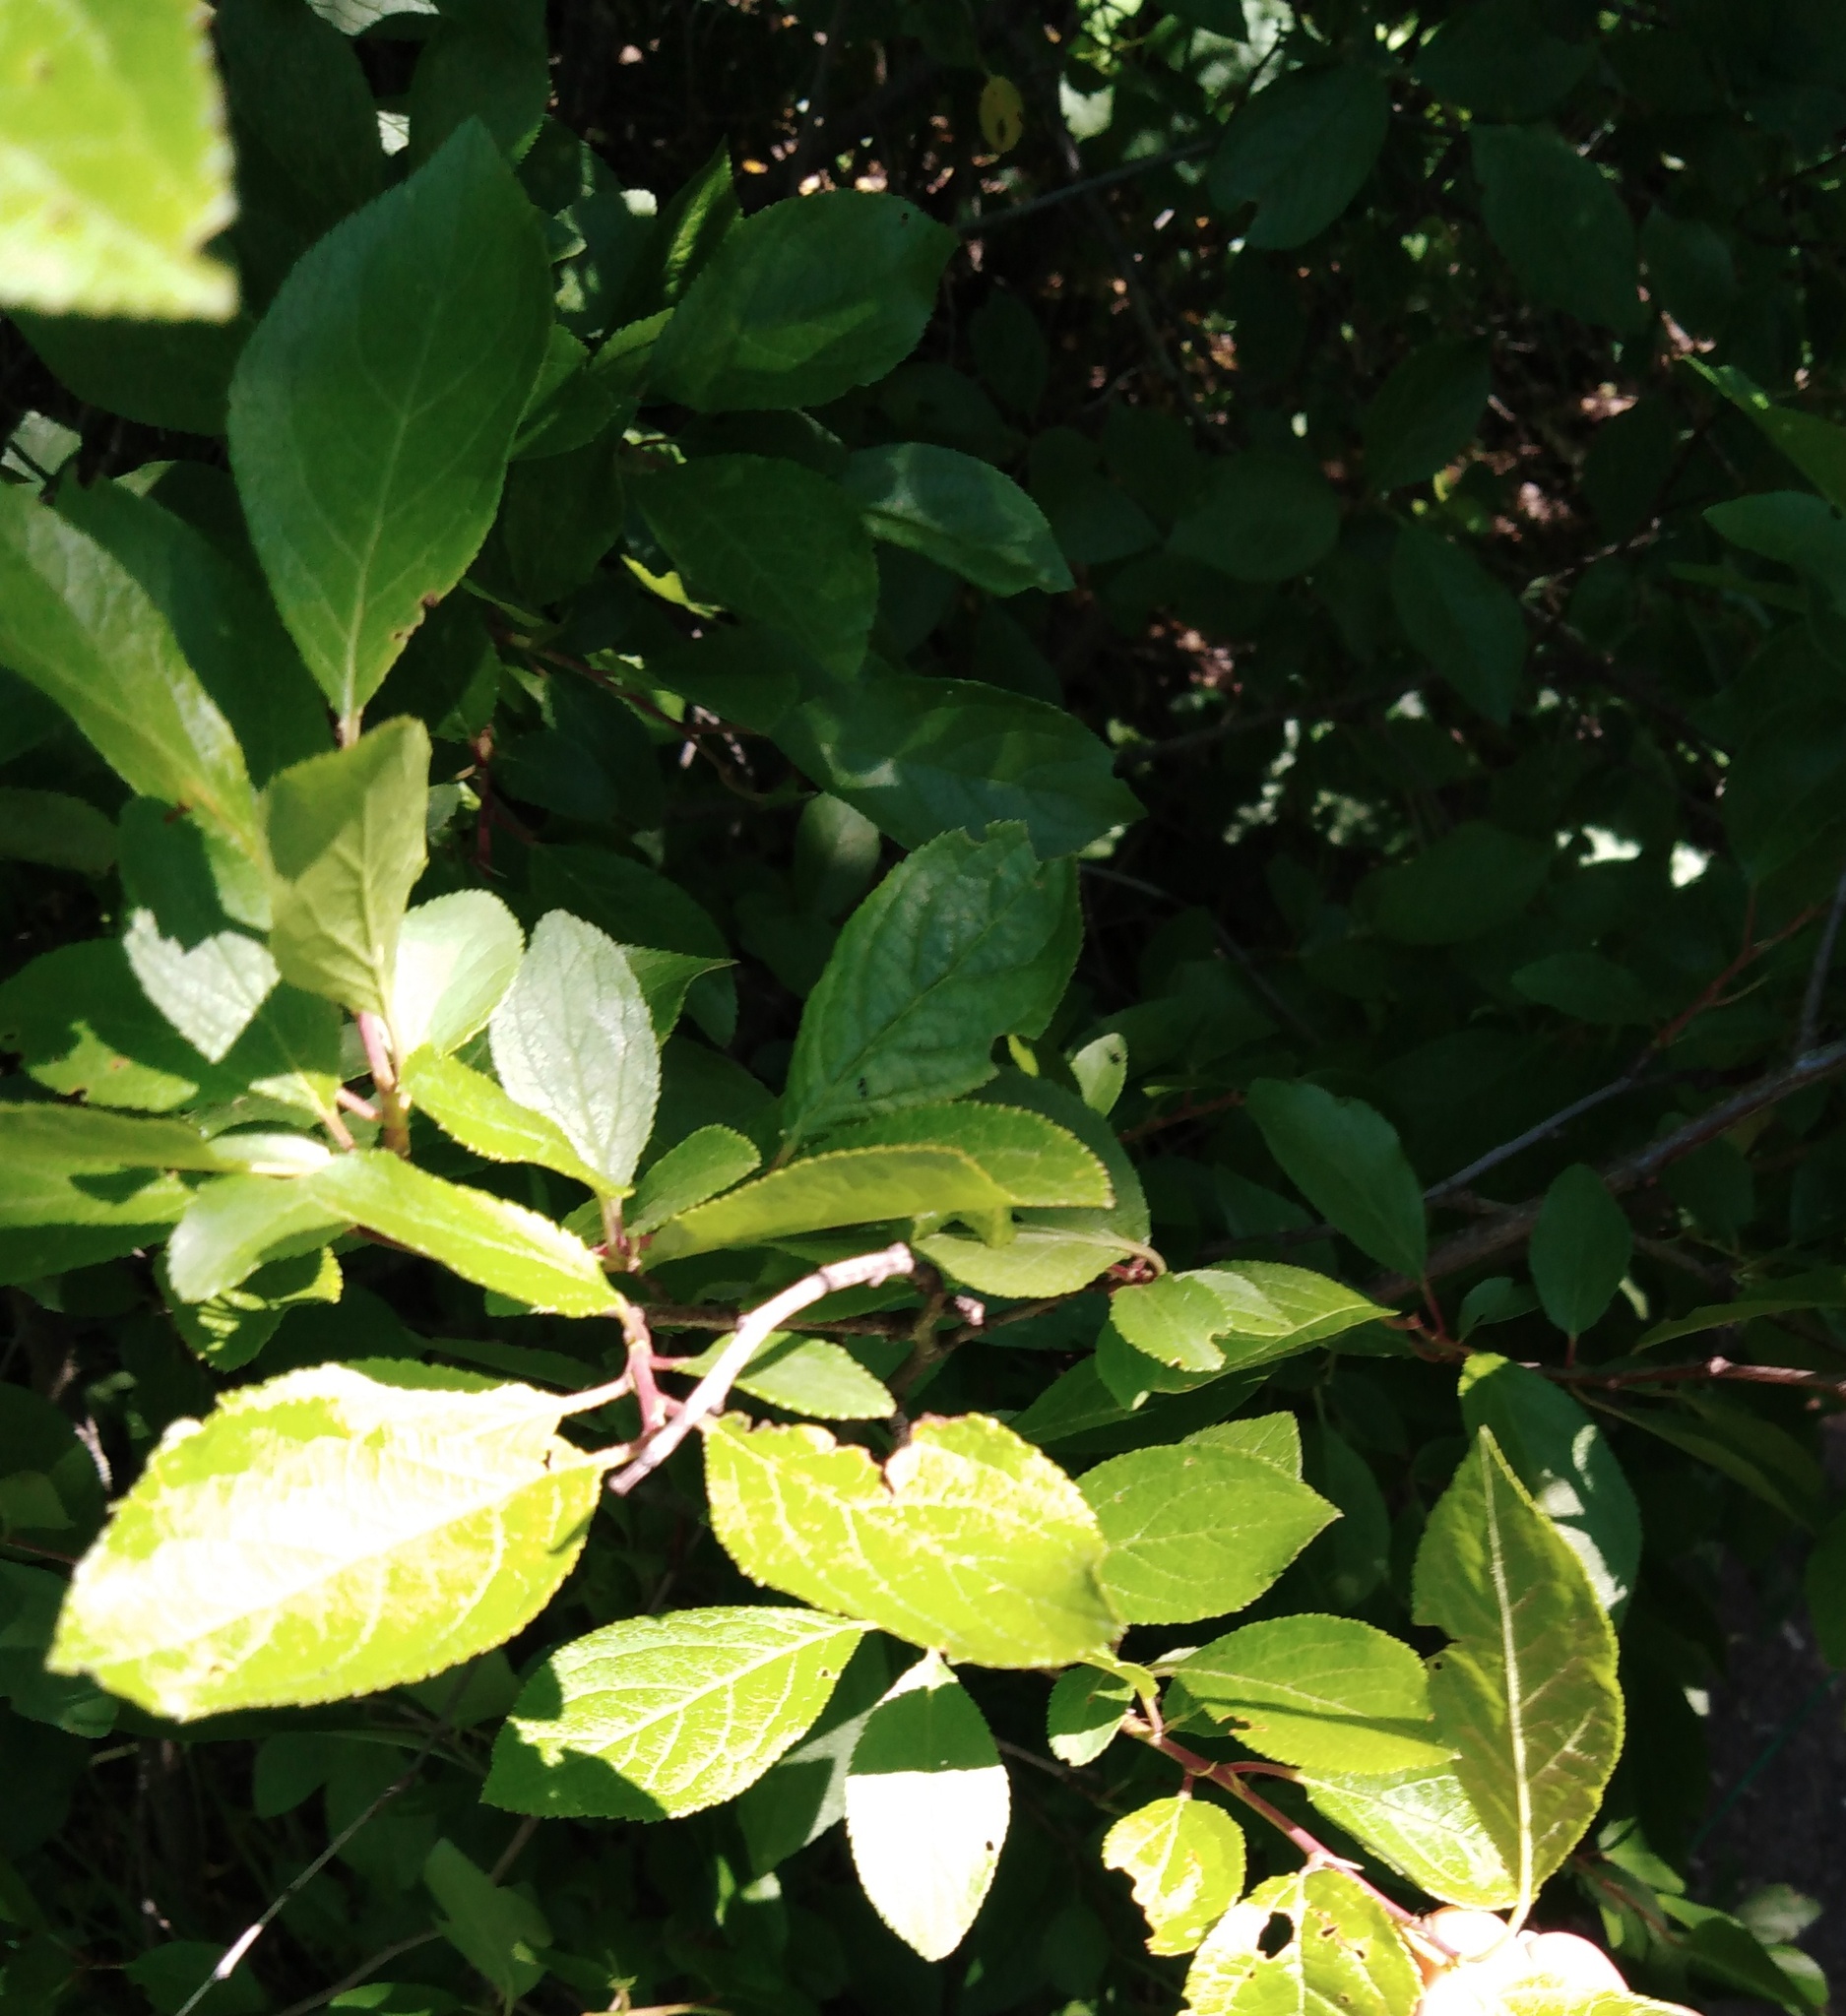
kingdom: Plantae
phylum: Tracheophyta
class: Magnoliopsida
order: Rosales
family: Rosaceae
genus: Prunus
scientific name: Prunus spinosa
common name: Blackthorn
